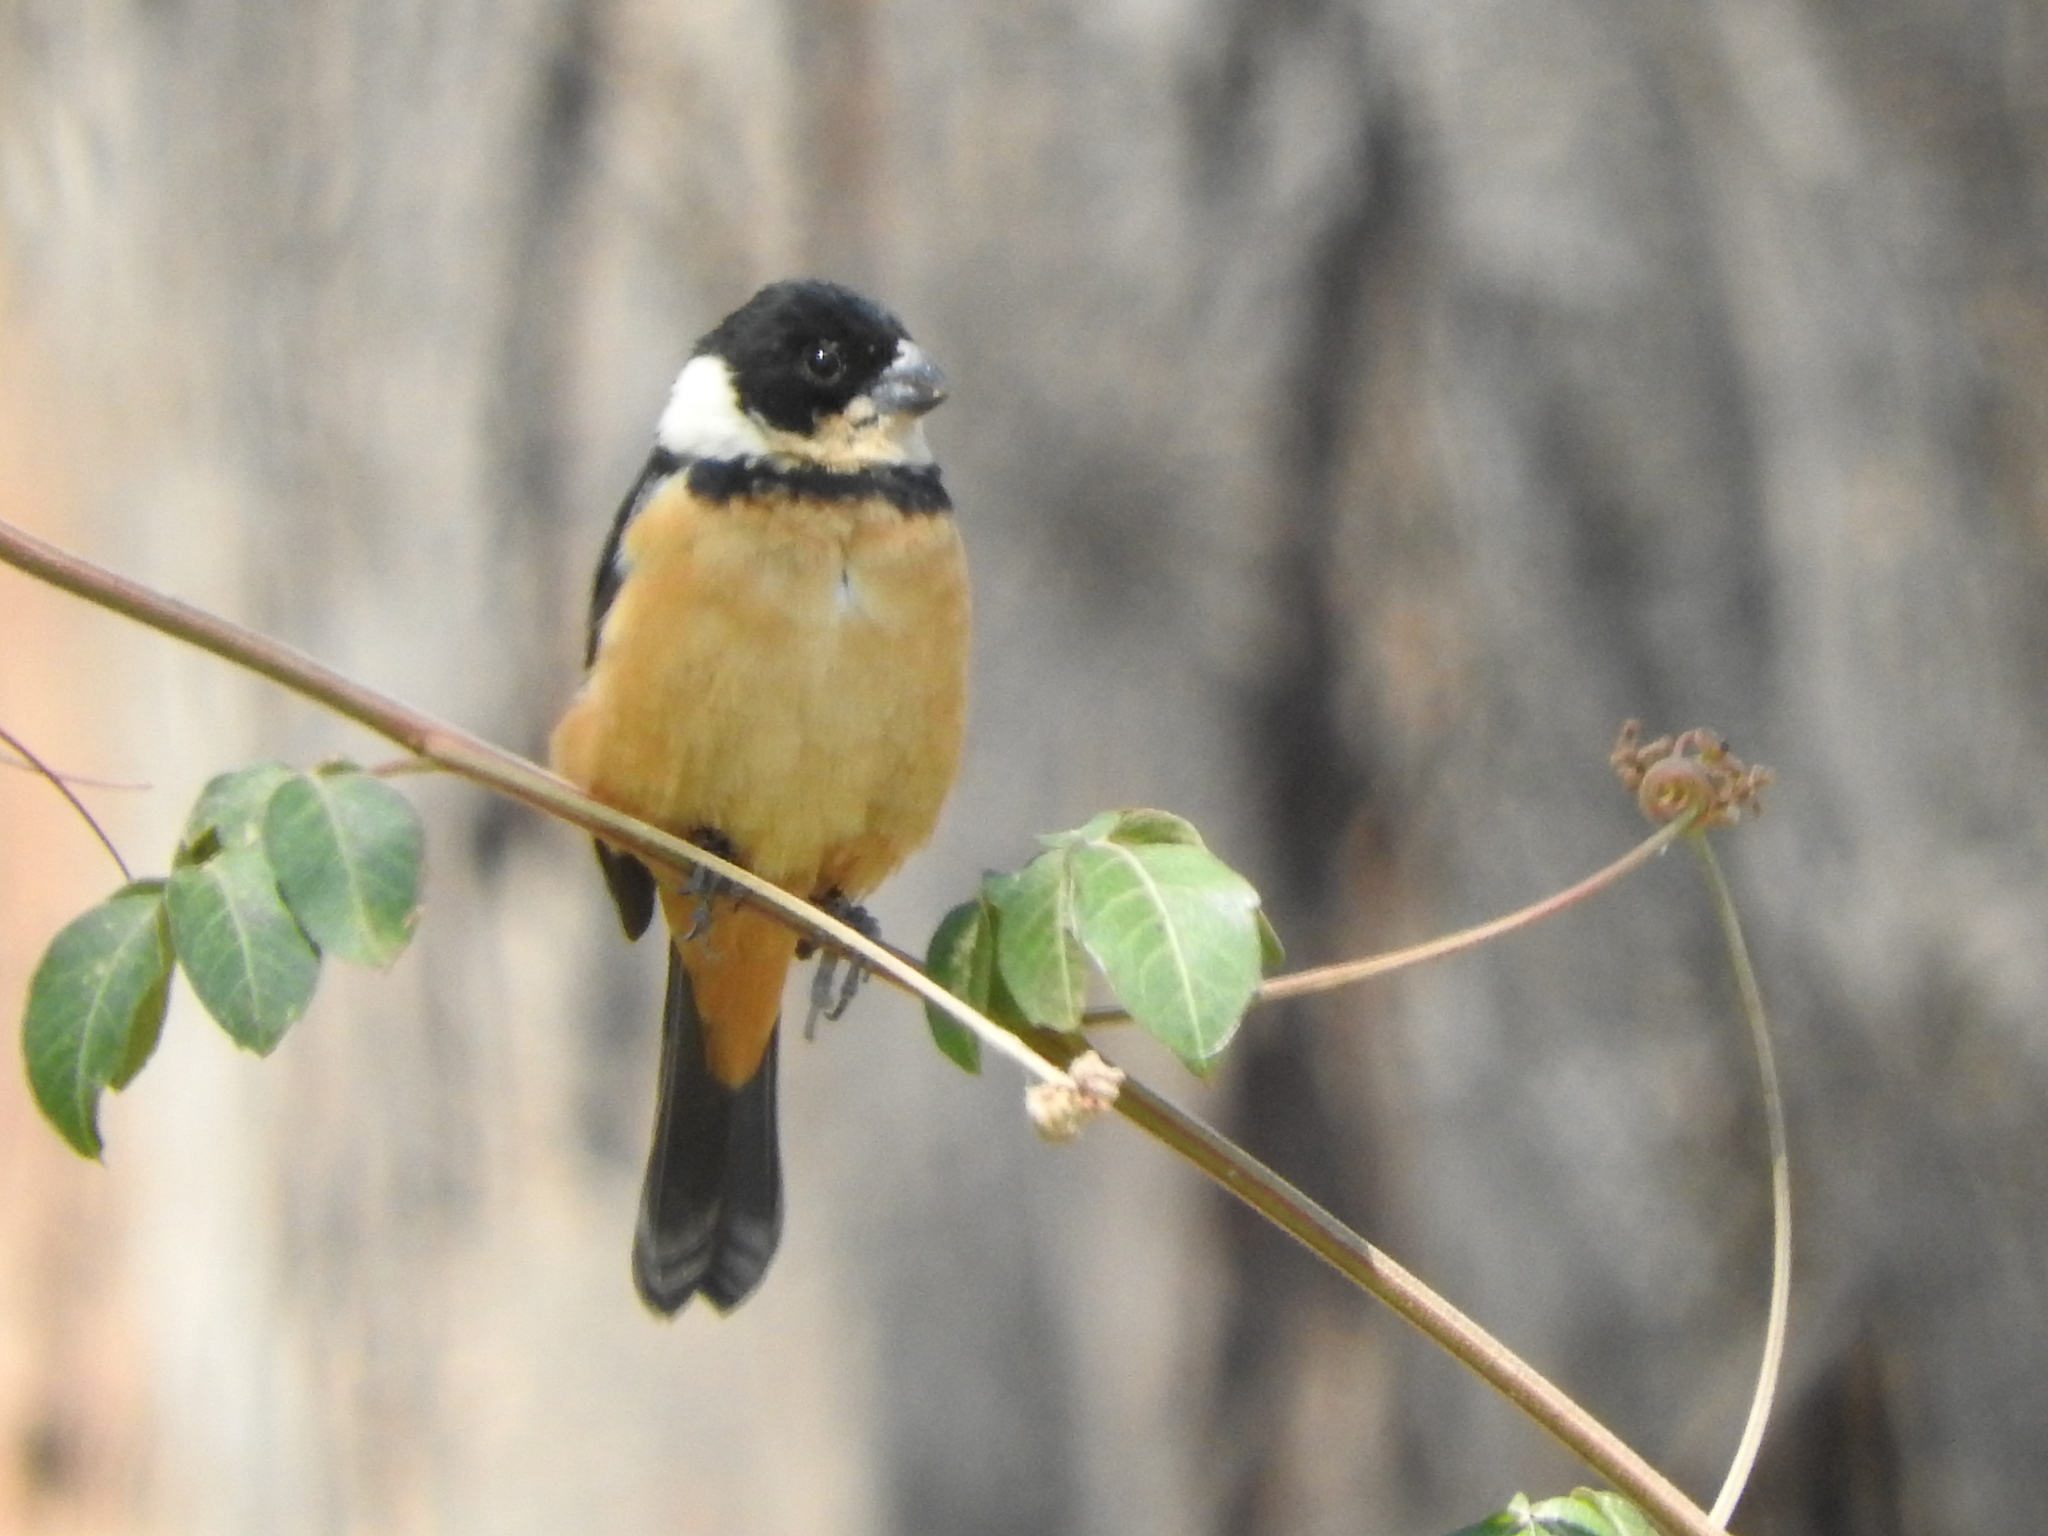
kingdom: Animalia
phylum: Chordata
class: Aves
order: Passeriformes
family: Thraupidae
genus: Sporophila
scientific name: Sporophila torqueola
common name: White-collared seedeater
